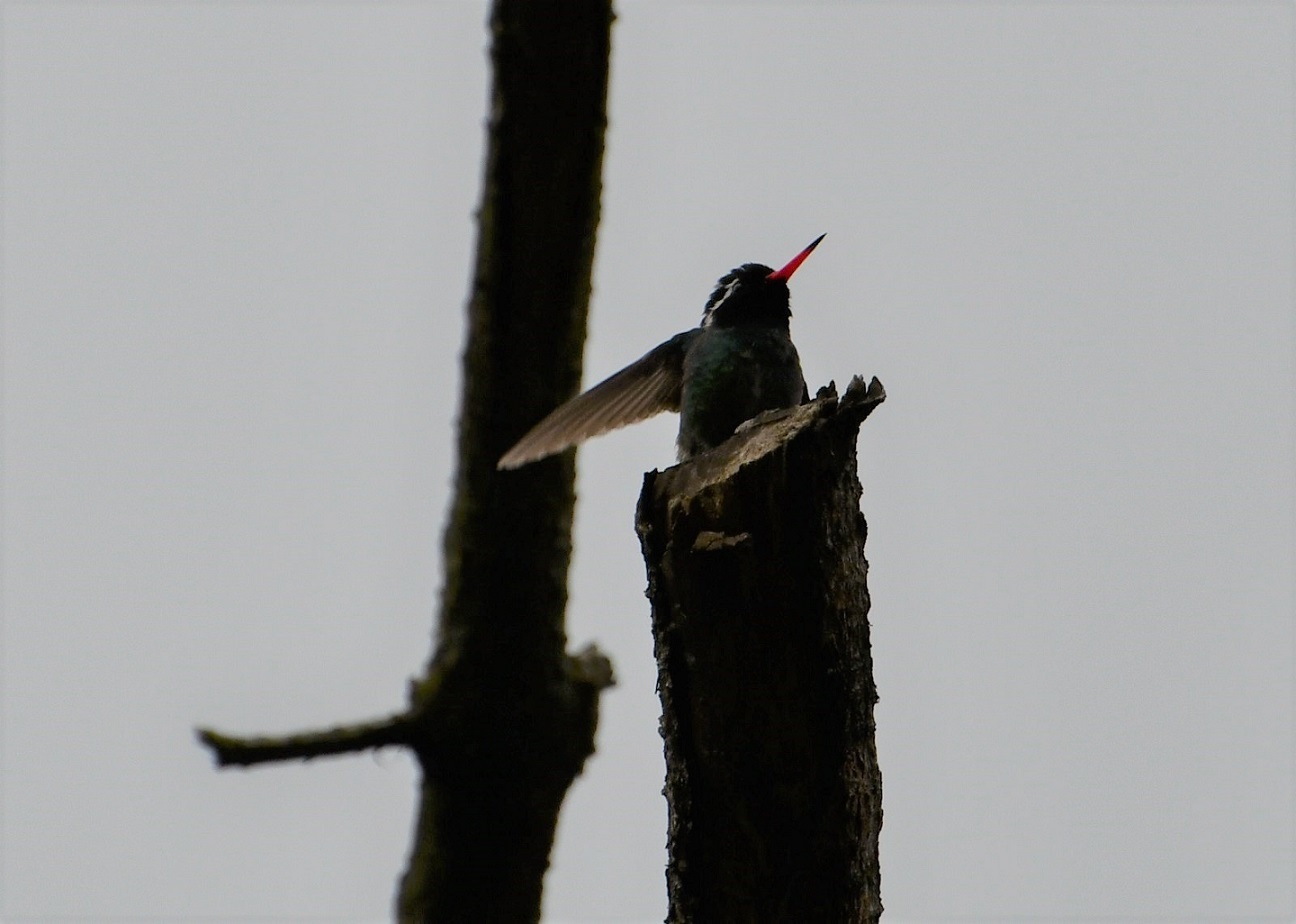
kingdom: Animalia
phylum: Chordata
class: Aves
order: Apodiformes
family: Trochilidae
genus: Basilinna
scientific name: Basilinna leucotis
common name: White-eared hummingbird
